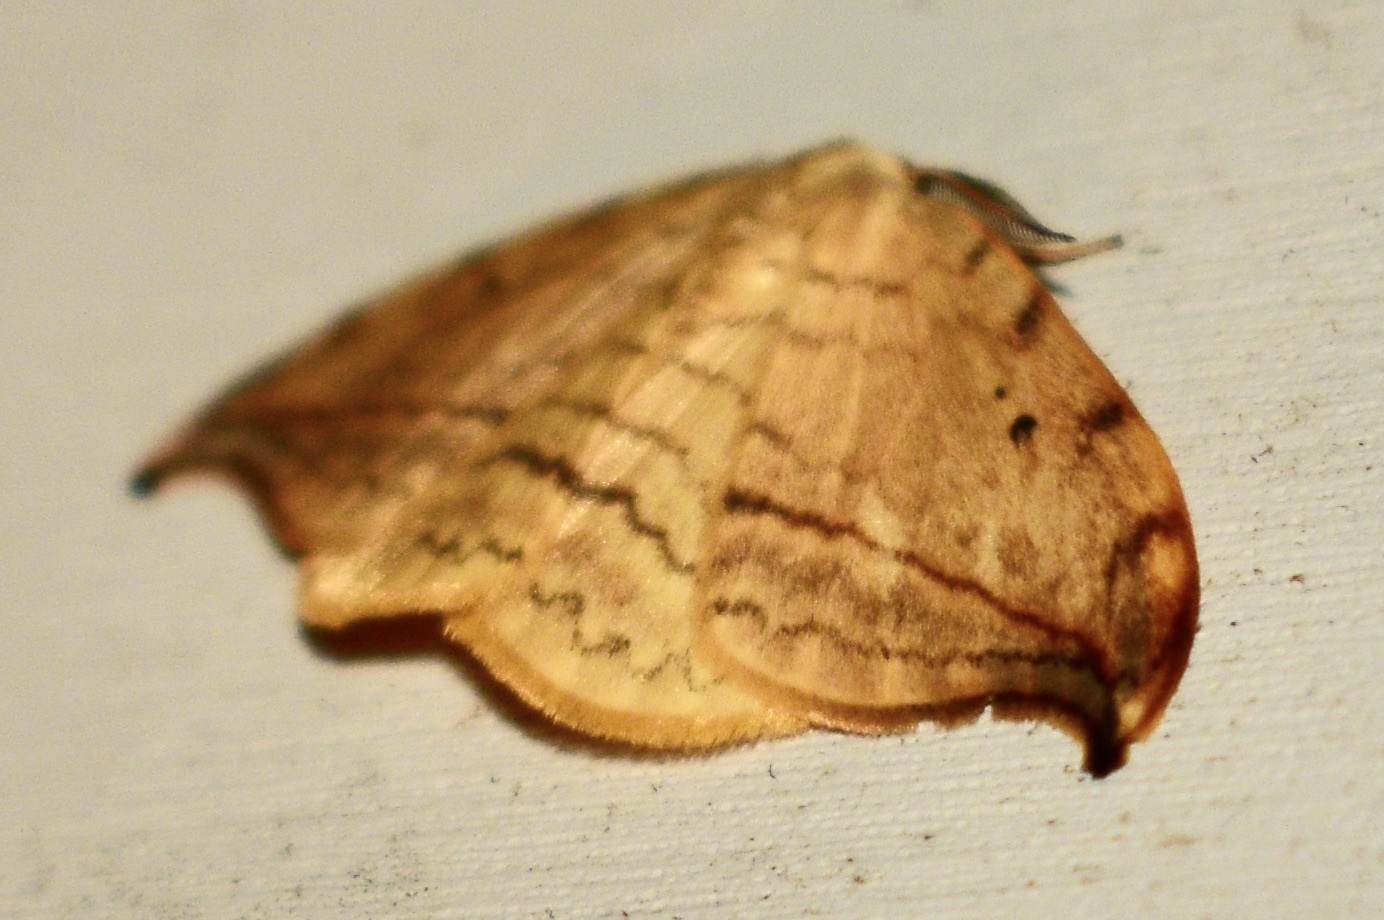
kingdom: Animalia
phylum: Arthropoda
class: Insecta
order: Lepidoptera
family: Drepanidae
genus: Drepana
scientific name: Drepana arcuata
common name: Arched hooktip moth
